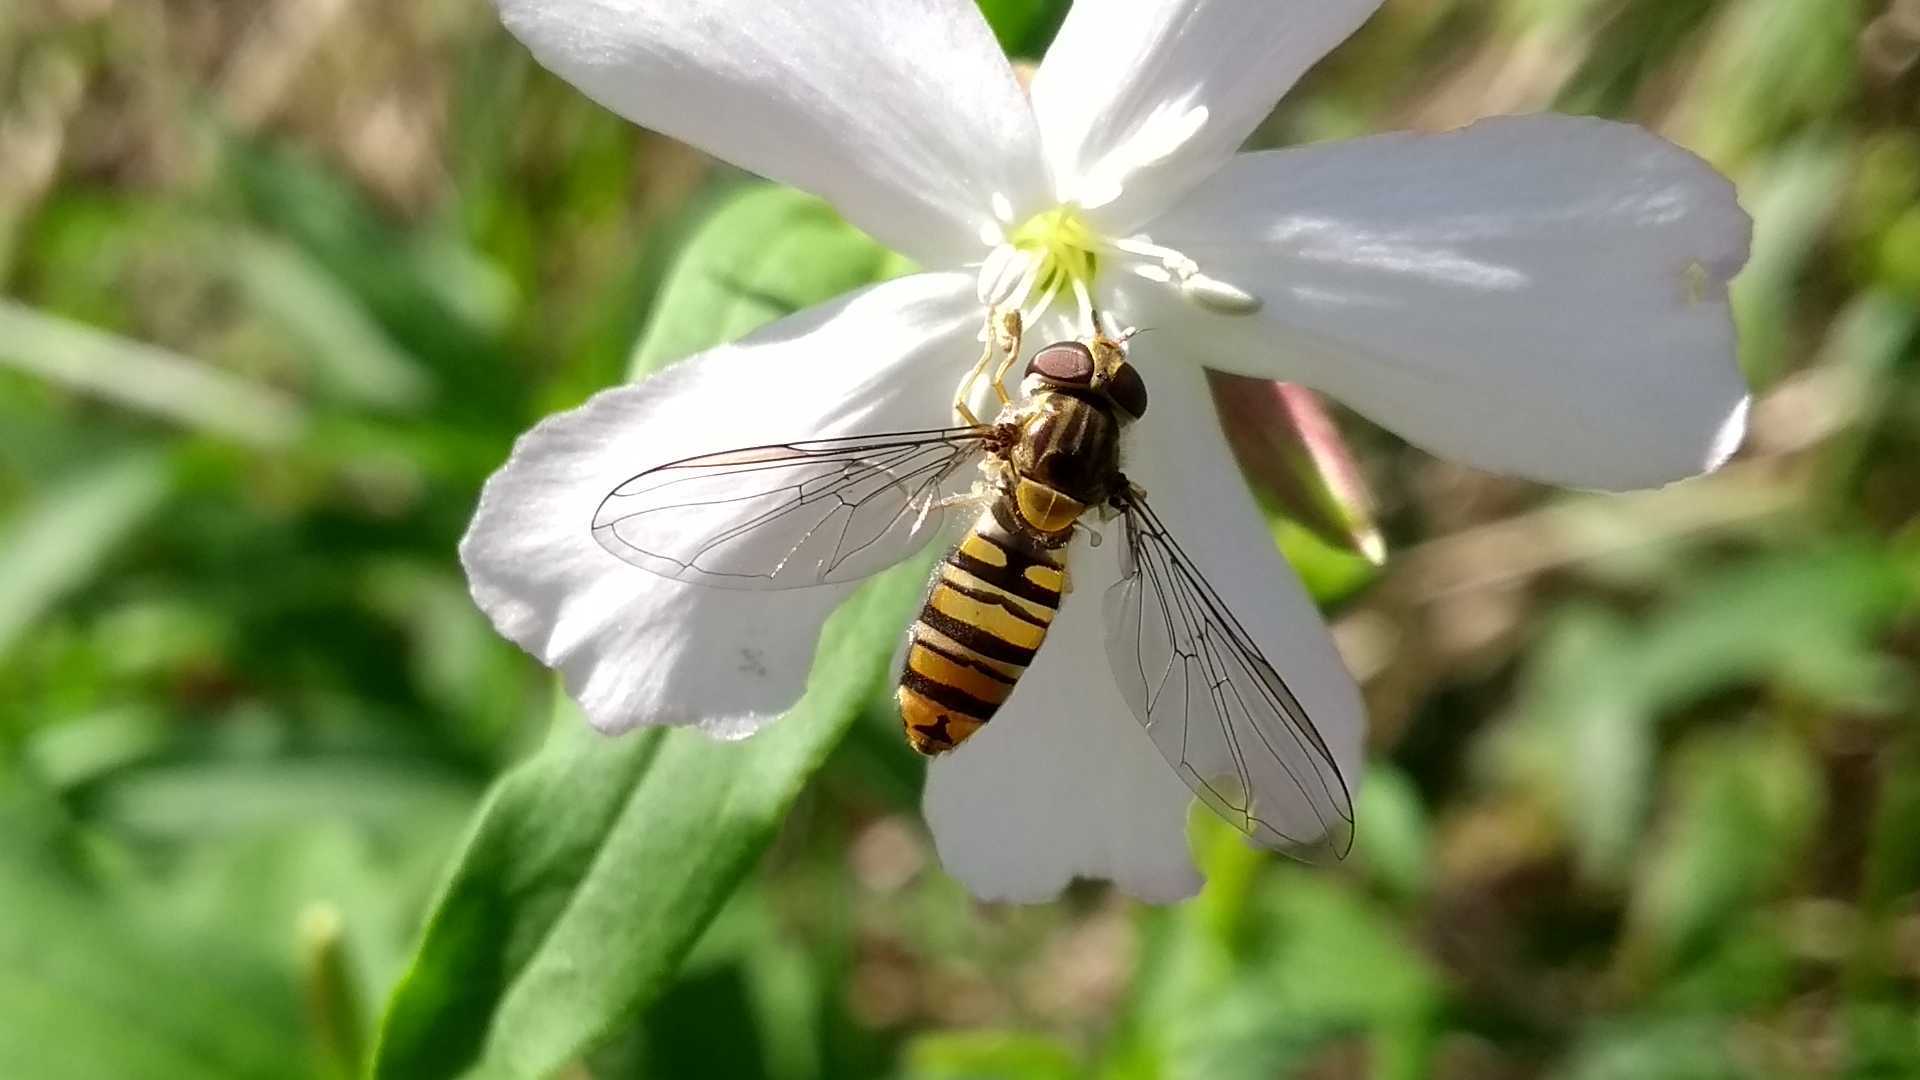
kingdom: Animalia
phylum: Arthropoda
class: Insecta
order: Diptera
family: Syrphidae
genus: Episyrphus
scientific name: Episyrphus balteatus
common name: Marmalade hoverfly
